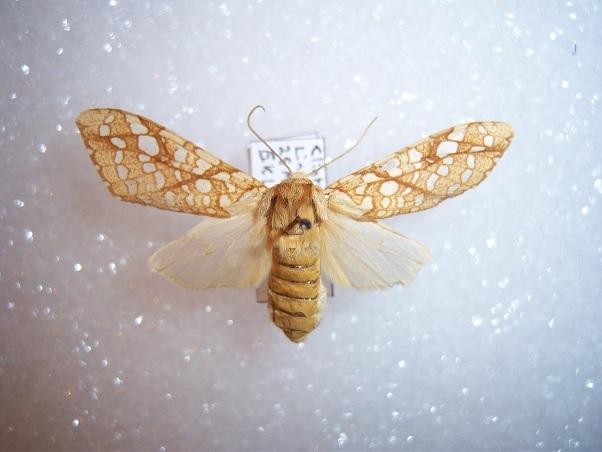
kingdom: Animalia
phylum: Arthropoda
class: Insecta
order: Lepidoptera
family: Erebidae
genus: Lophocampa
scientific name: Lophocampa caryae
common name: Hickory tussock moth
